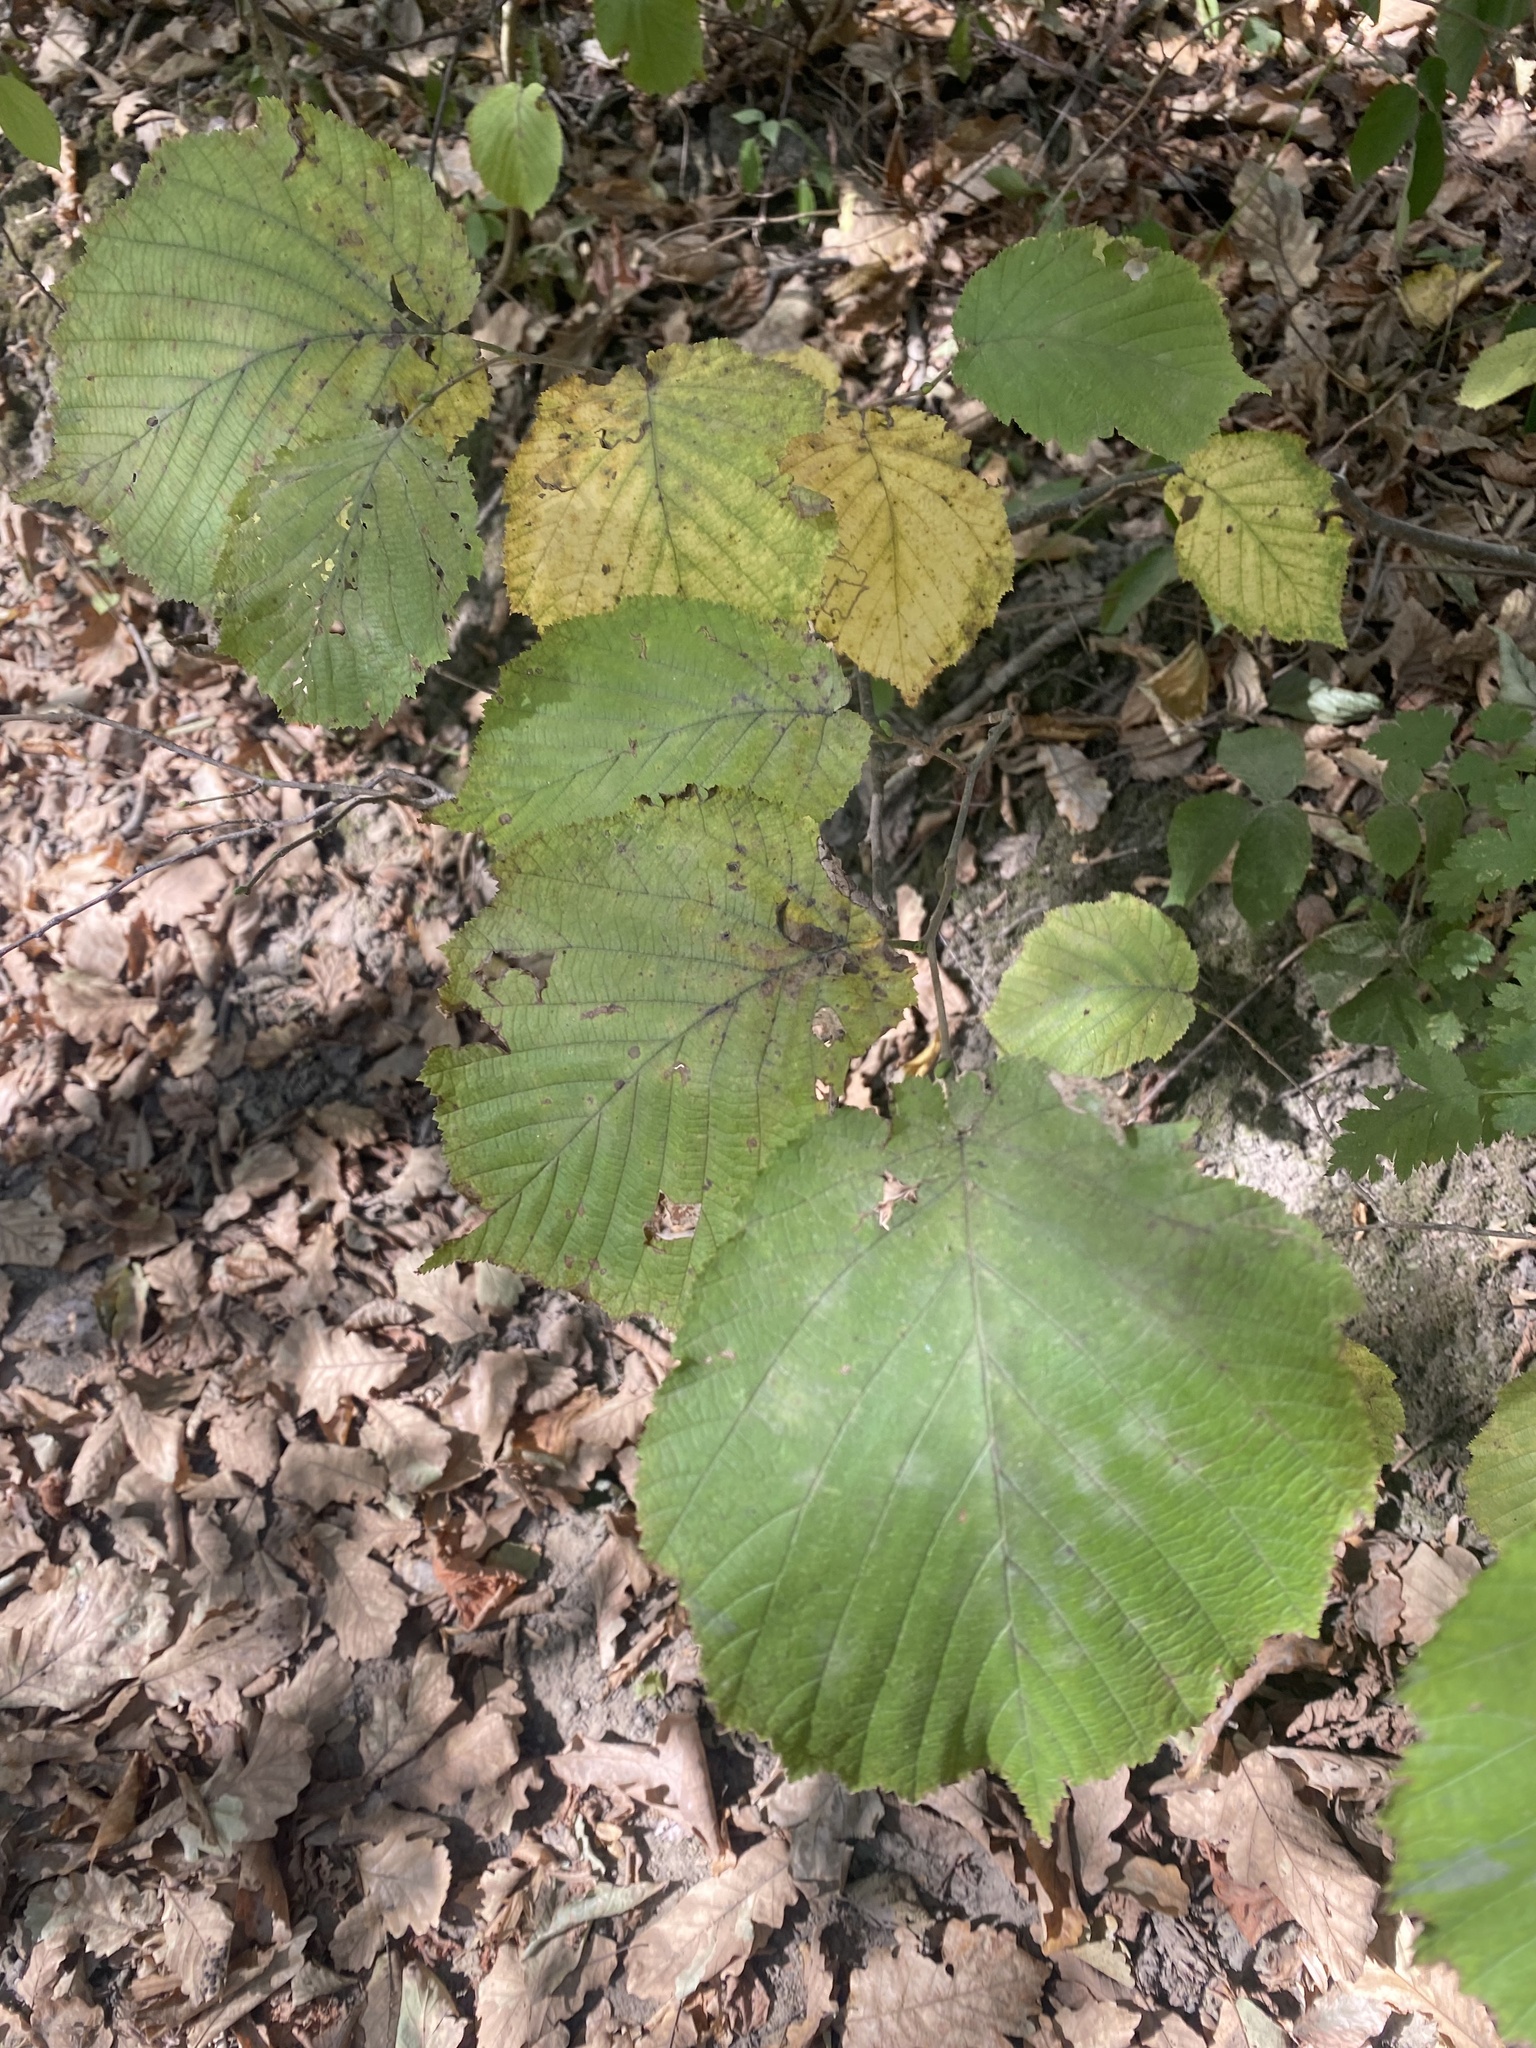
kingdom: Plantae
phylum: Tracheophyta
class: Magnoliopsida
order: Fagales
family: Betulaceae
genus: Corylus
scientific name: Corylus avellana
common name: European hazel
